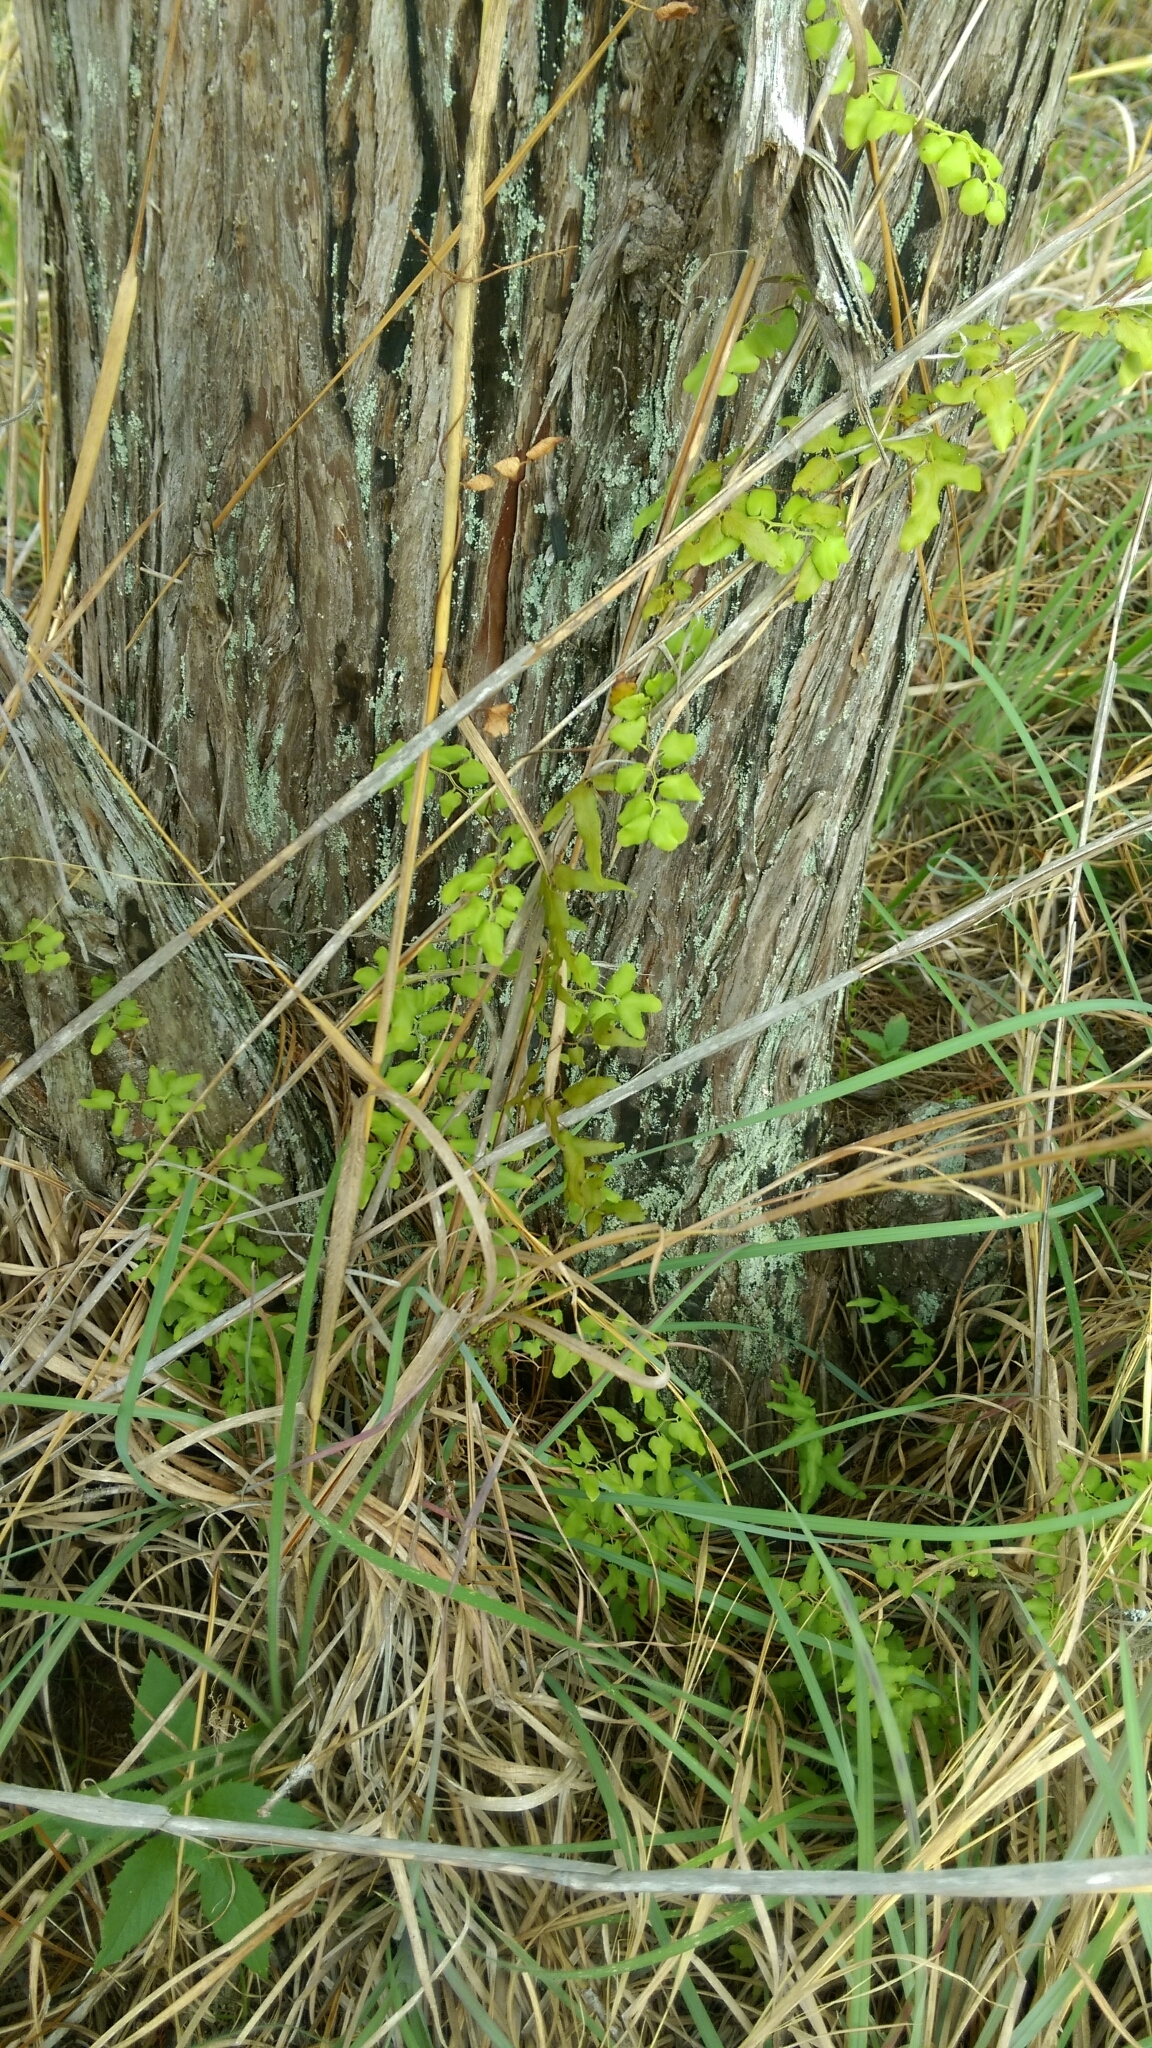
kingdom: Plantae
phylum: Tracheophyta
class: Polypodiopsida
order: Schizaeales
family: Lygodiaceae
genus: Lygodium
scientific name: Lygodium microphyllum
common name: Small-leaf climbing fern
